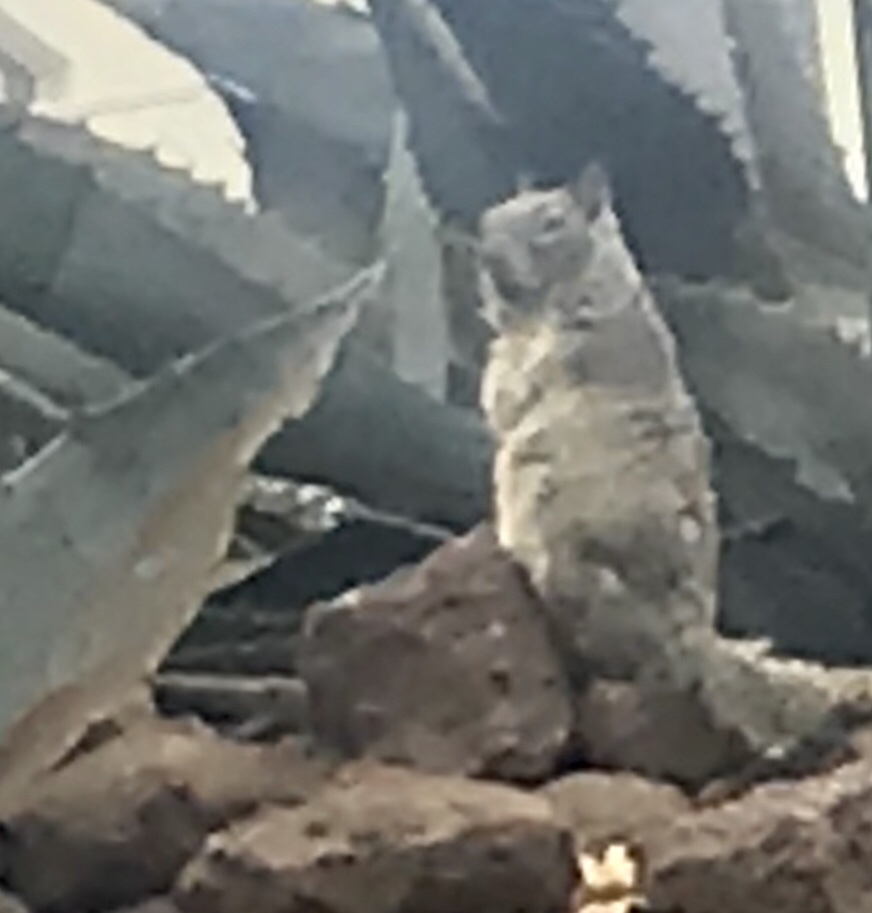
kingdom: Animalia
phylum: Chordata
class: Mammalia
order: Rodentia
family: Sciuridae
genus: Otospermophilus
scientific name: Otospermophilus beecheyi
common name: California ground squirrel
